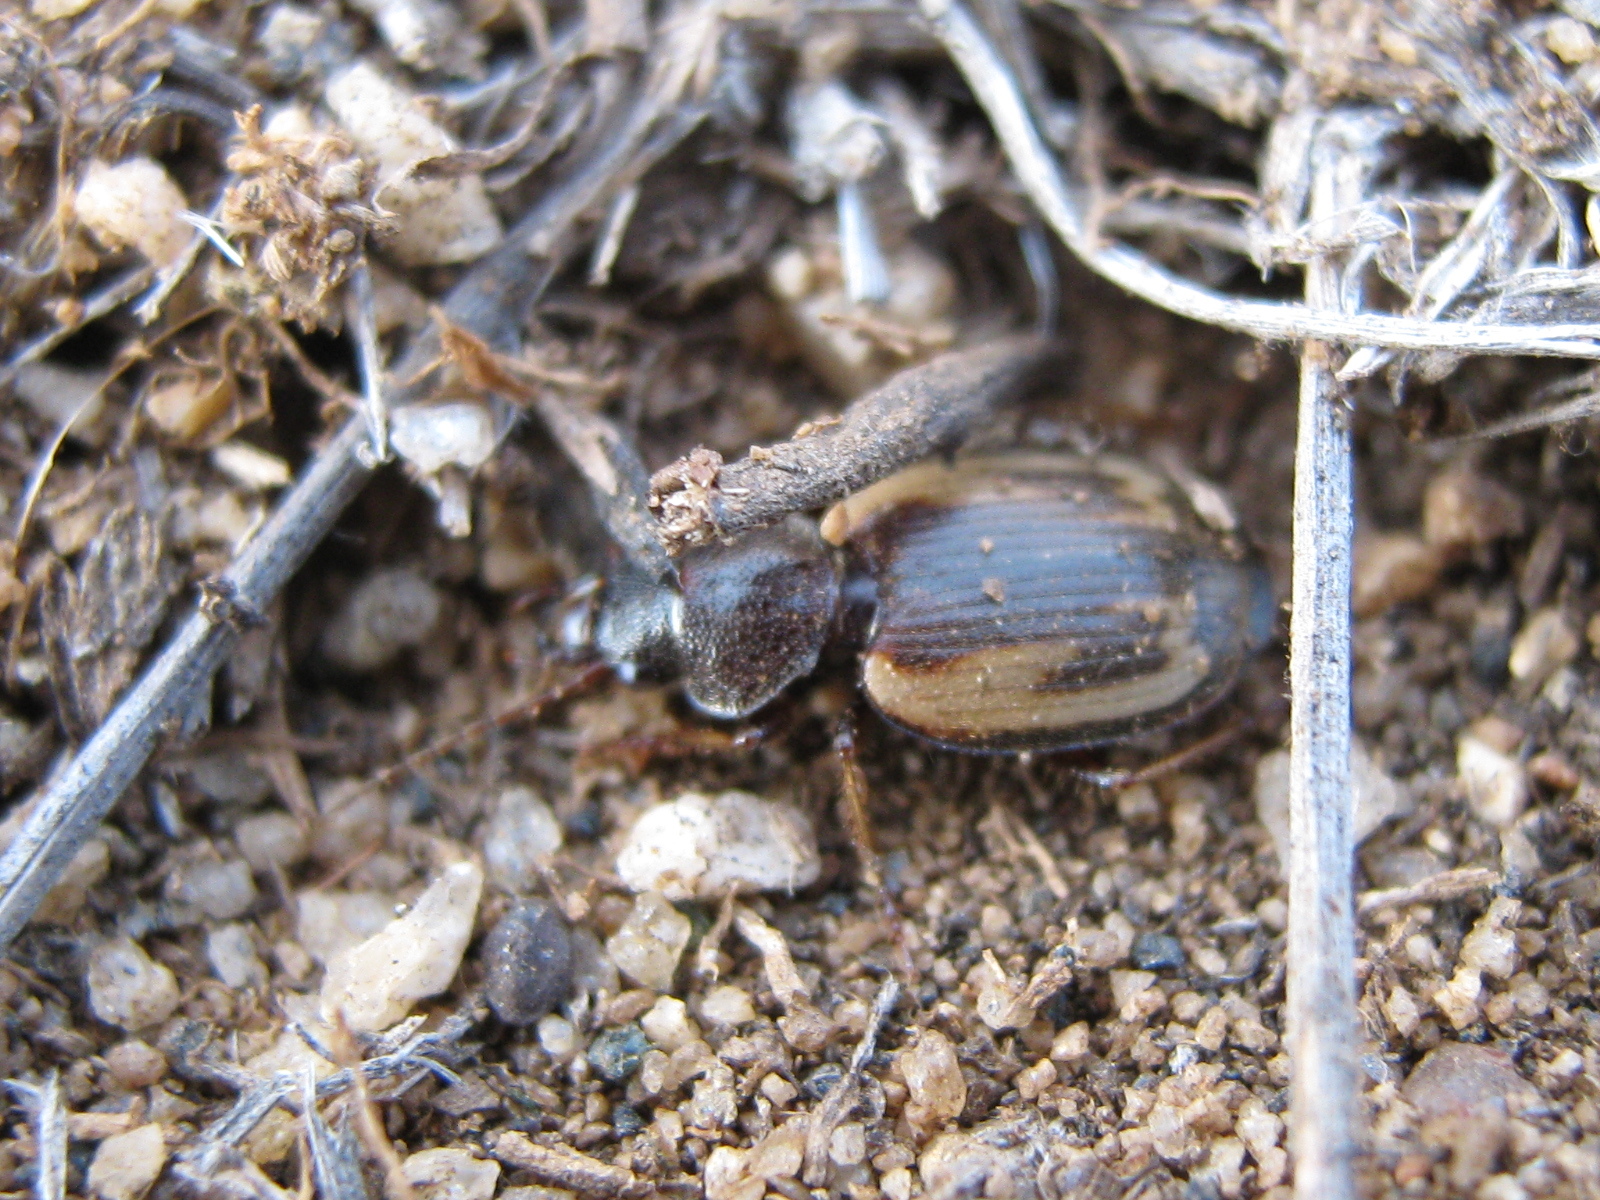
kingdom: Animalia
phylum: Arthropoda
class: Insecta
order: Coleoptera
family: Carabidae
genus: Corsyra
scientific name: Corsyra fusula
